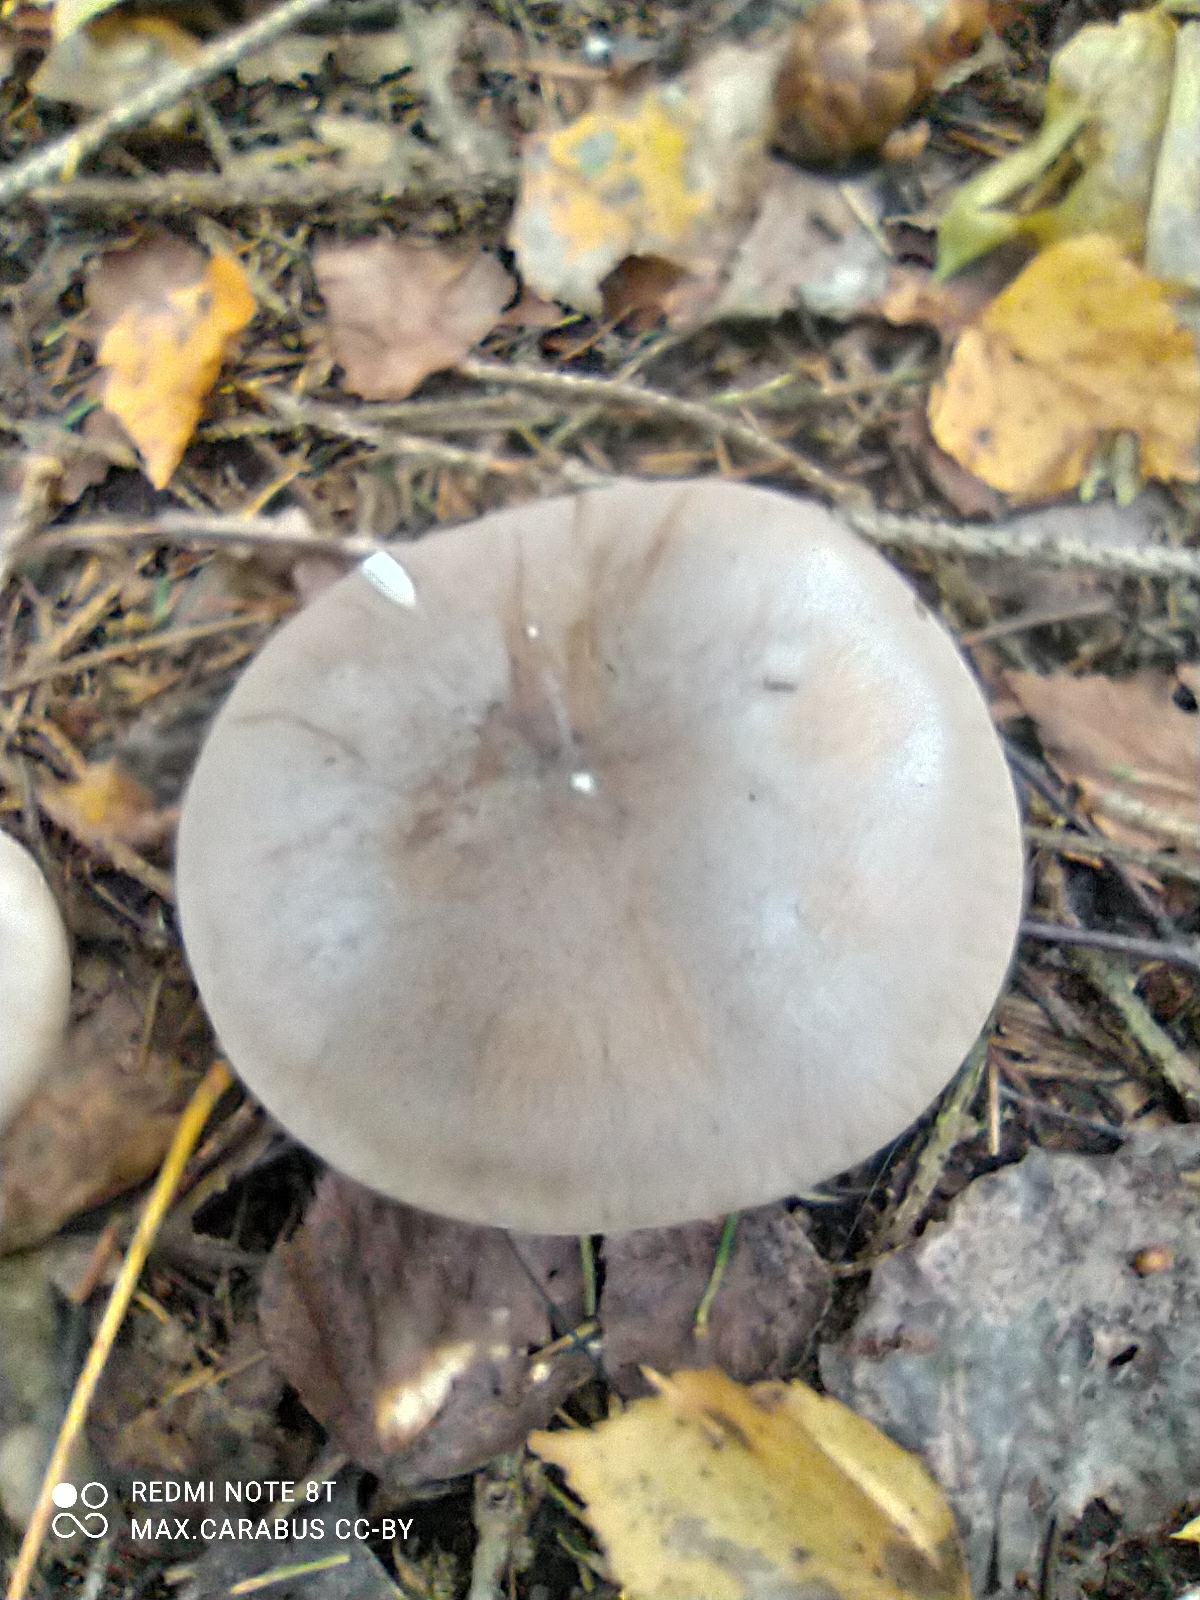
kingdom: Fungi
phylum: Basidiomycota
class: Agaricomycetes
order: Agaricales
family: Tricholomataceae
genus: Clitocybe
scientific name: Clitocybe nebularis
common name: Clouded agaric
